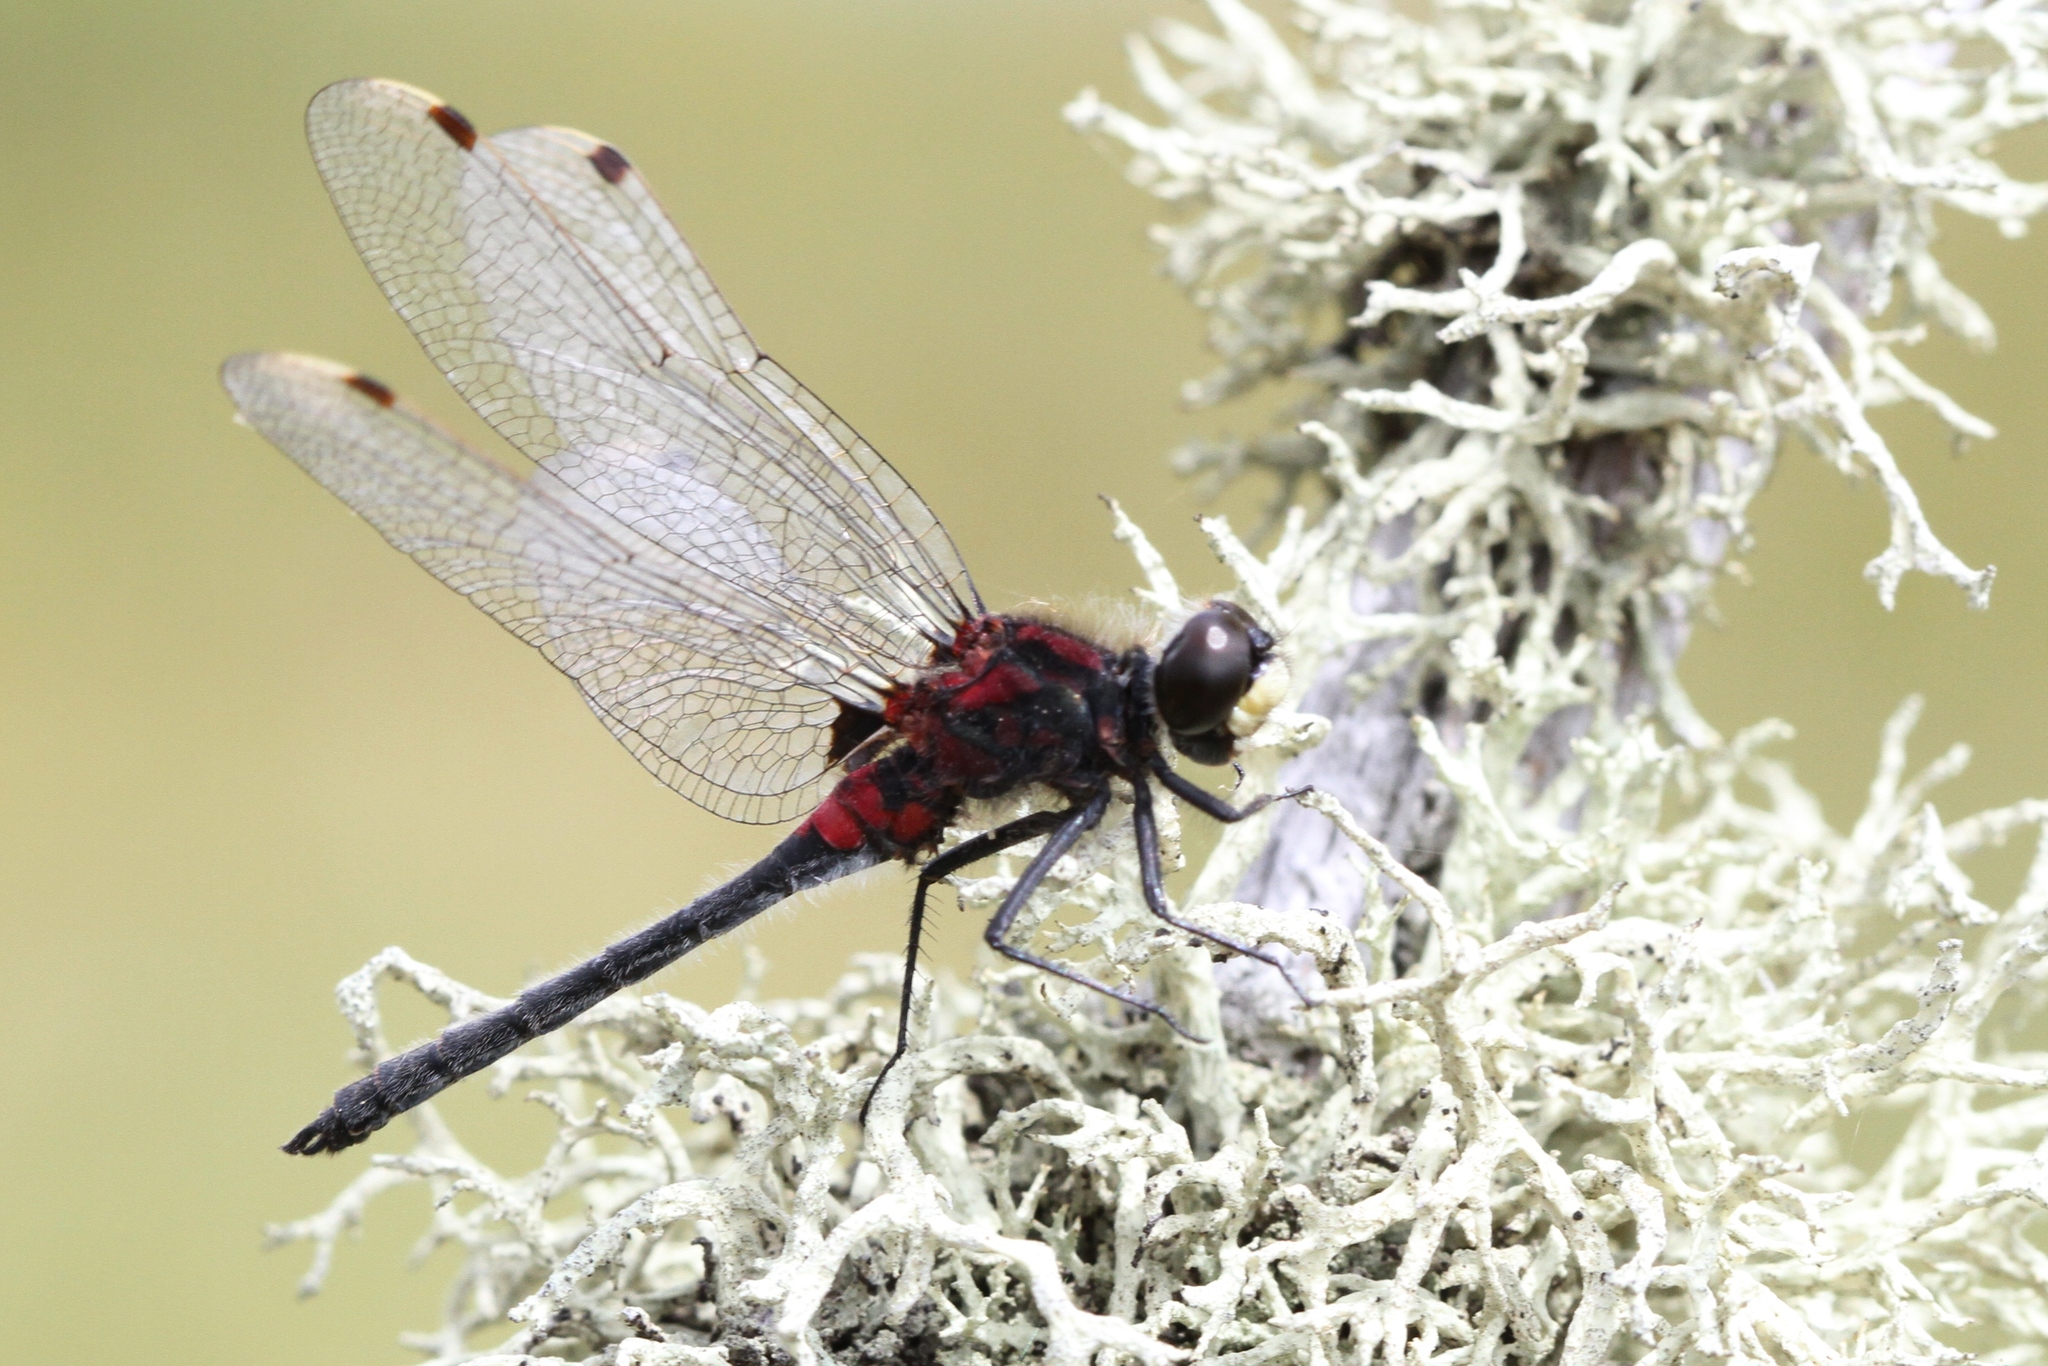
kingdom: Animalia
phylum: Arthropoda
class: Insecta
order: Odonata
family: Libellulidae
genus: Leucorrhinia
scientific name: Leucorrhinia patricia
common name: Canada whiteface
